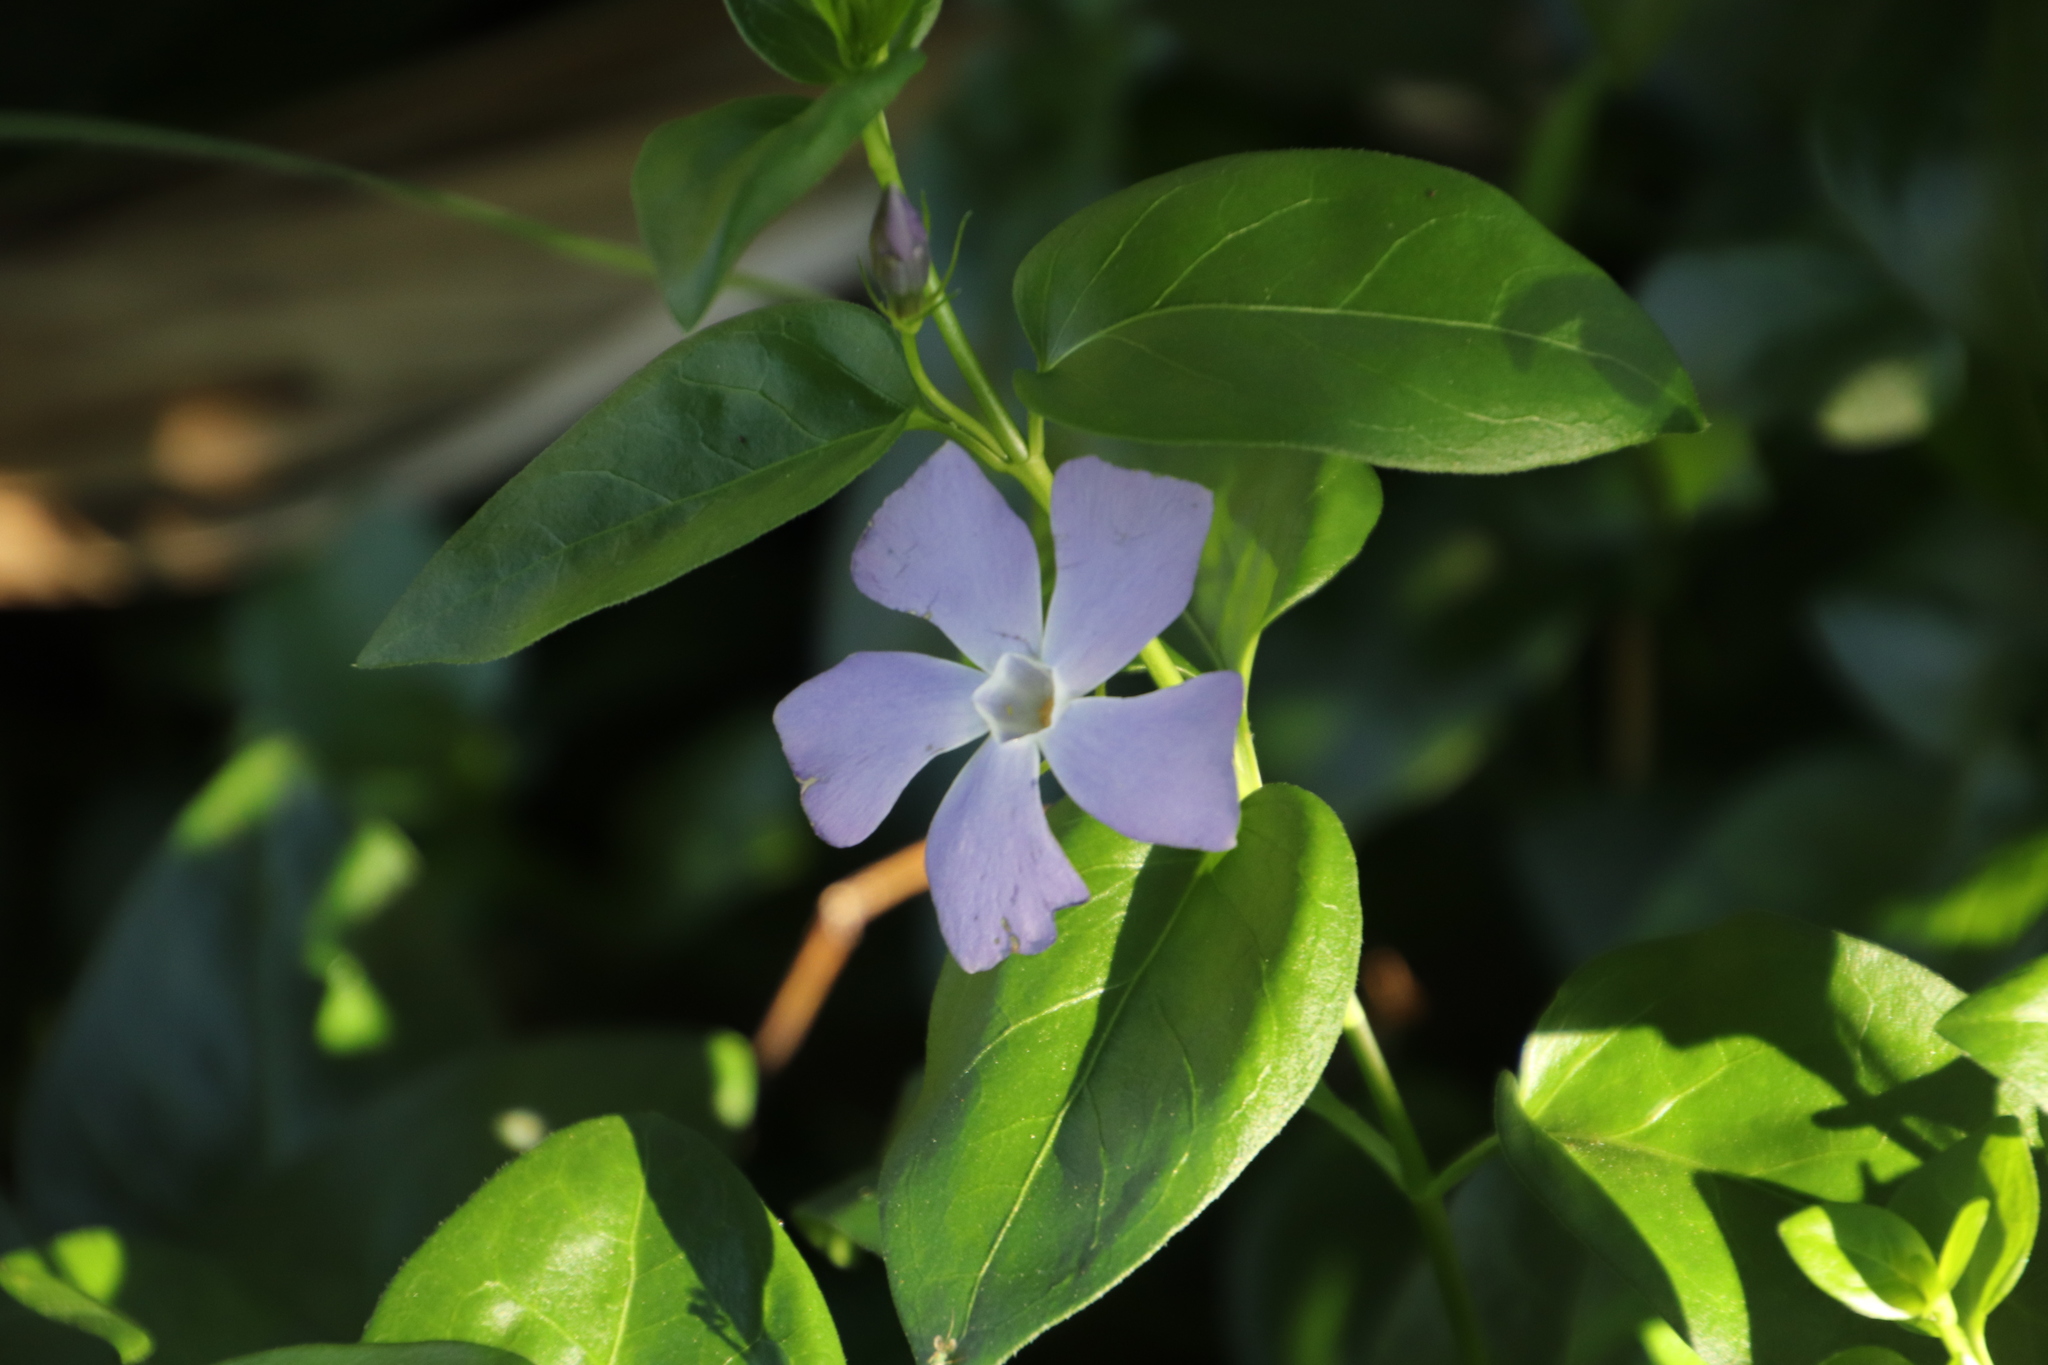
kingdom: Plantae
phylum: Tracheophyta
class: Magnoliopsida
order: Gentianales
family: Apocynaceae
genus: Vinca
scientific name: Vinca major
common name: Greater periwinkle
